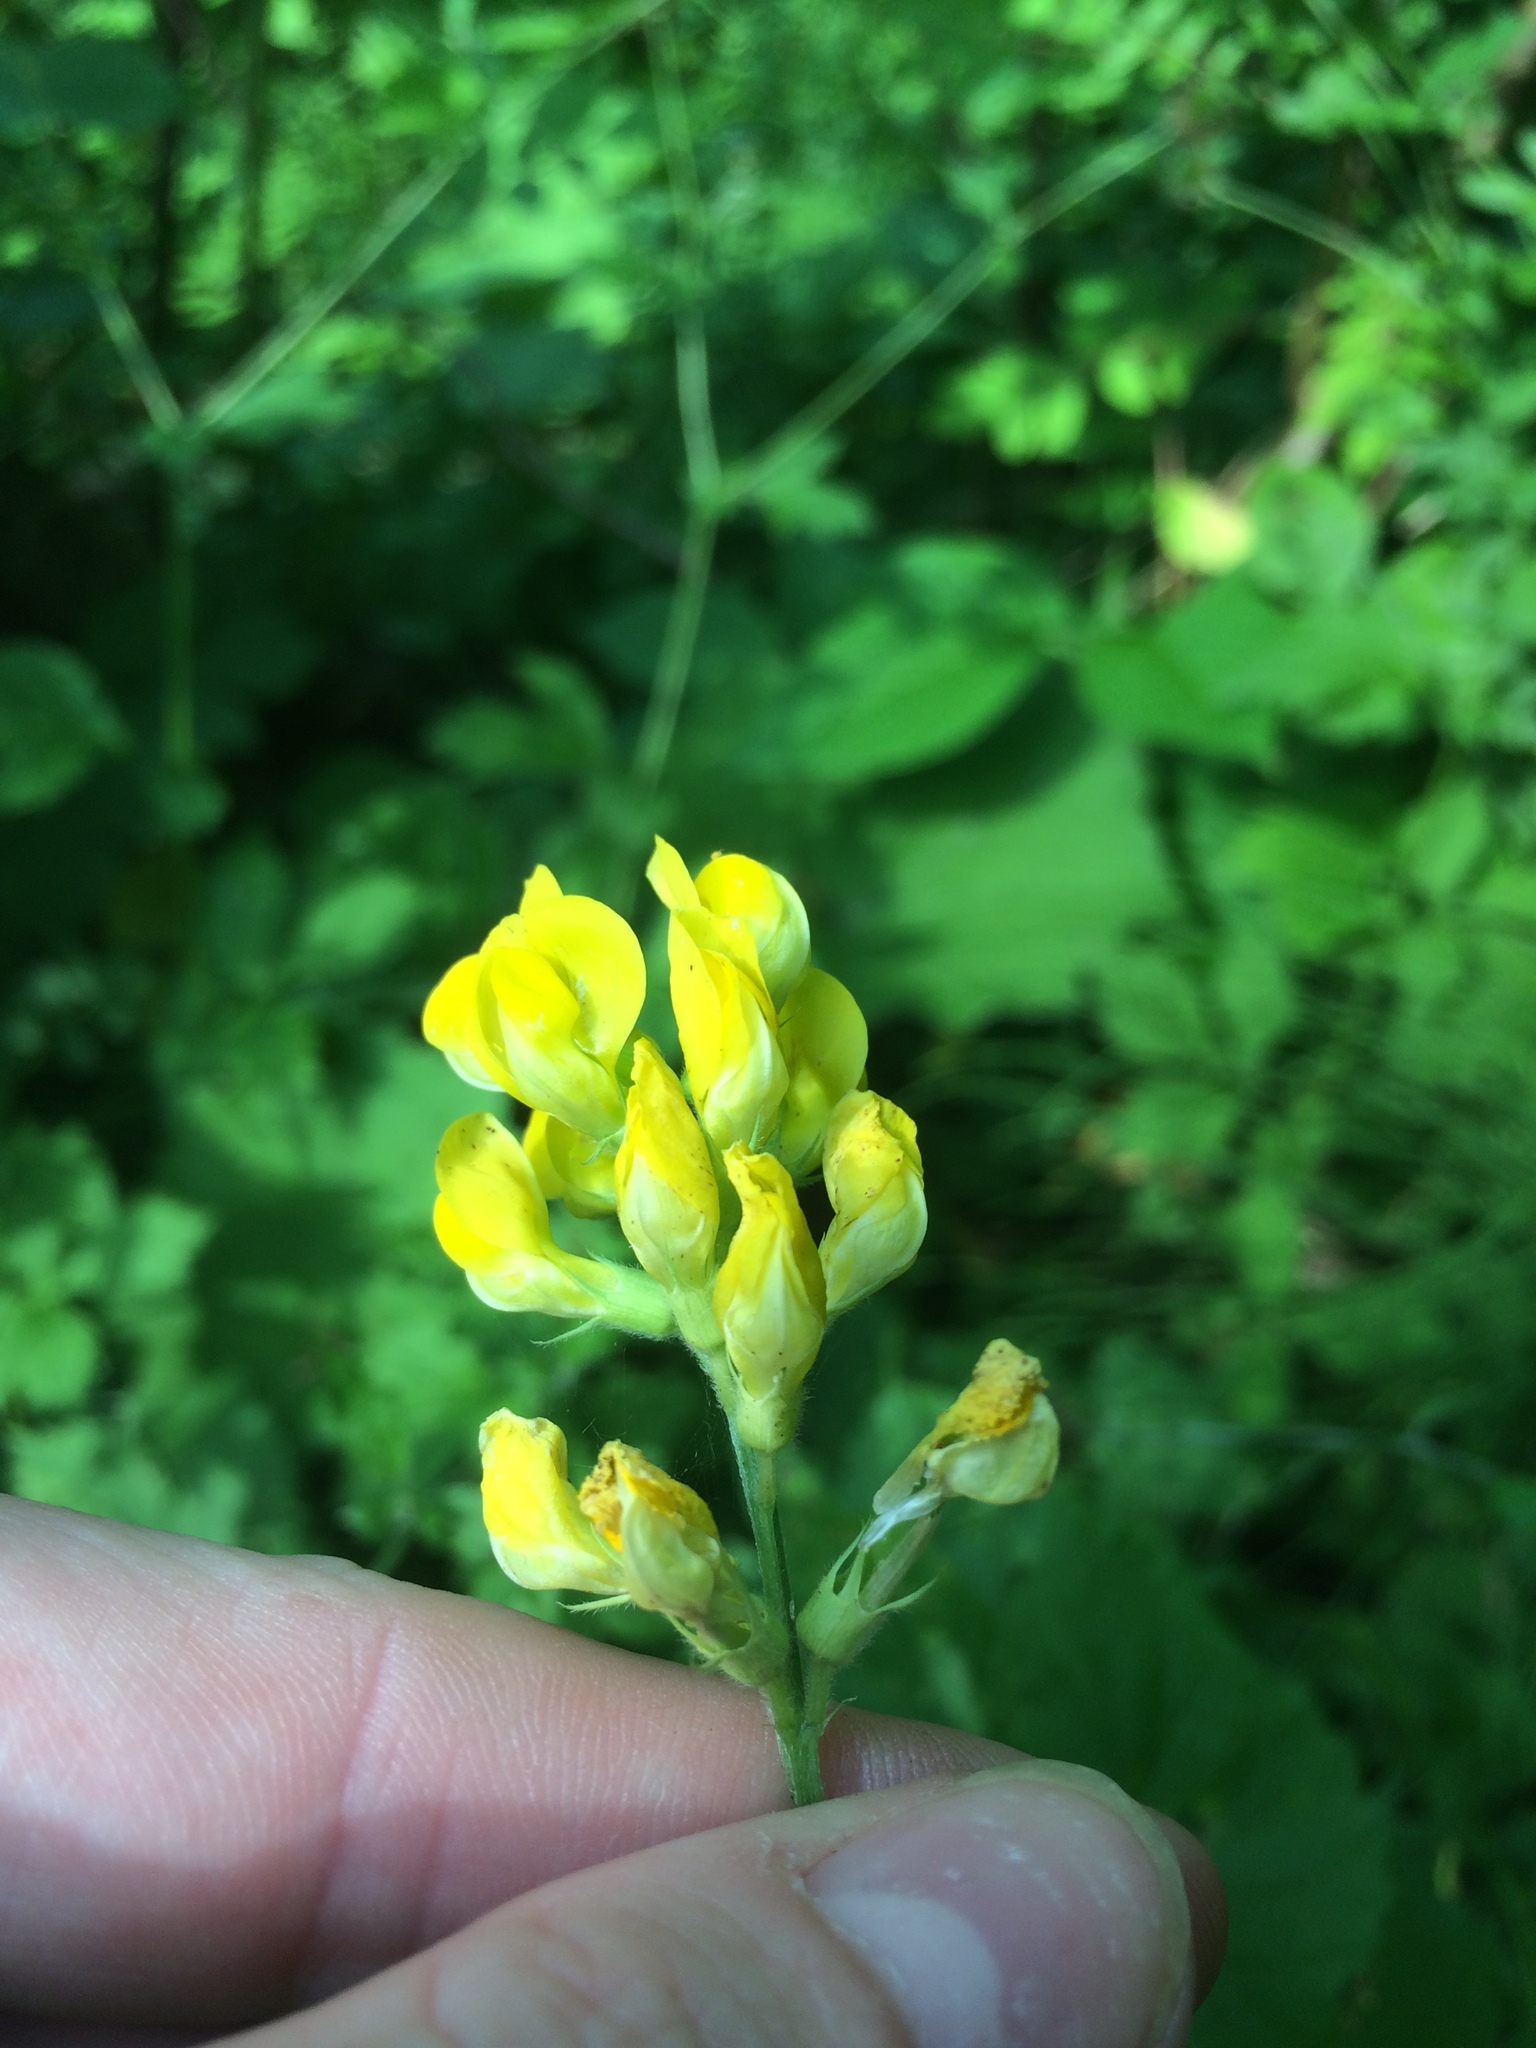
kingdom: Plantae
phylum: Tracheophyta
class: Magnoliopsida
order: Fabales
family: Fabaceae
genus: Lathyrus
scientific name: Lathyrus pratensis
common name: Meadow vetchling
